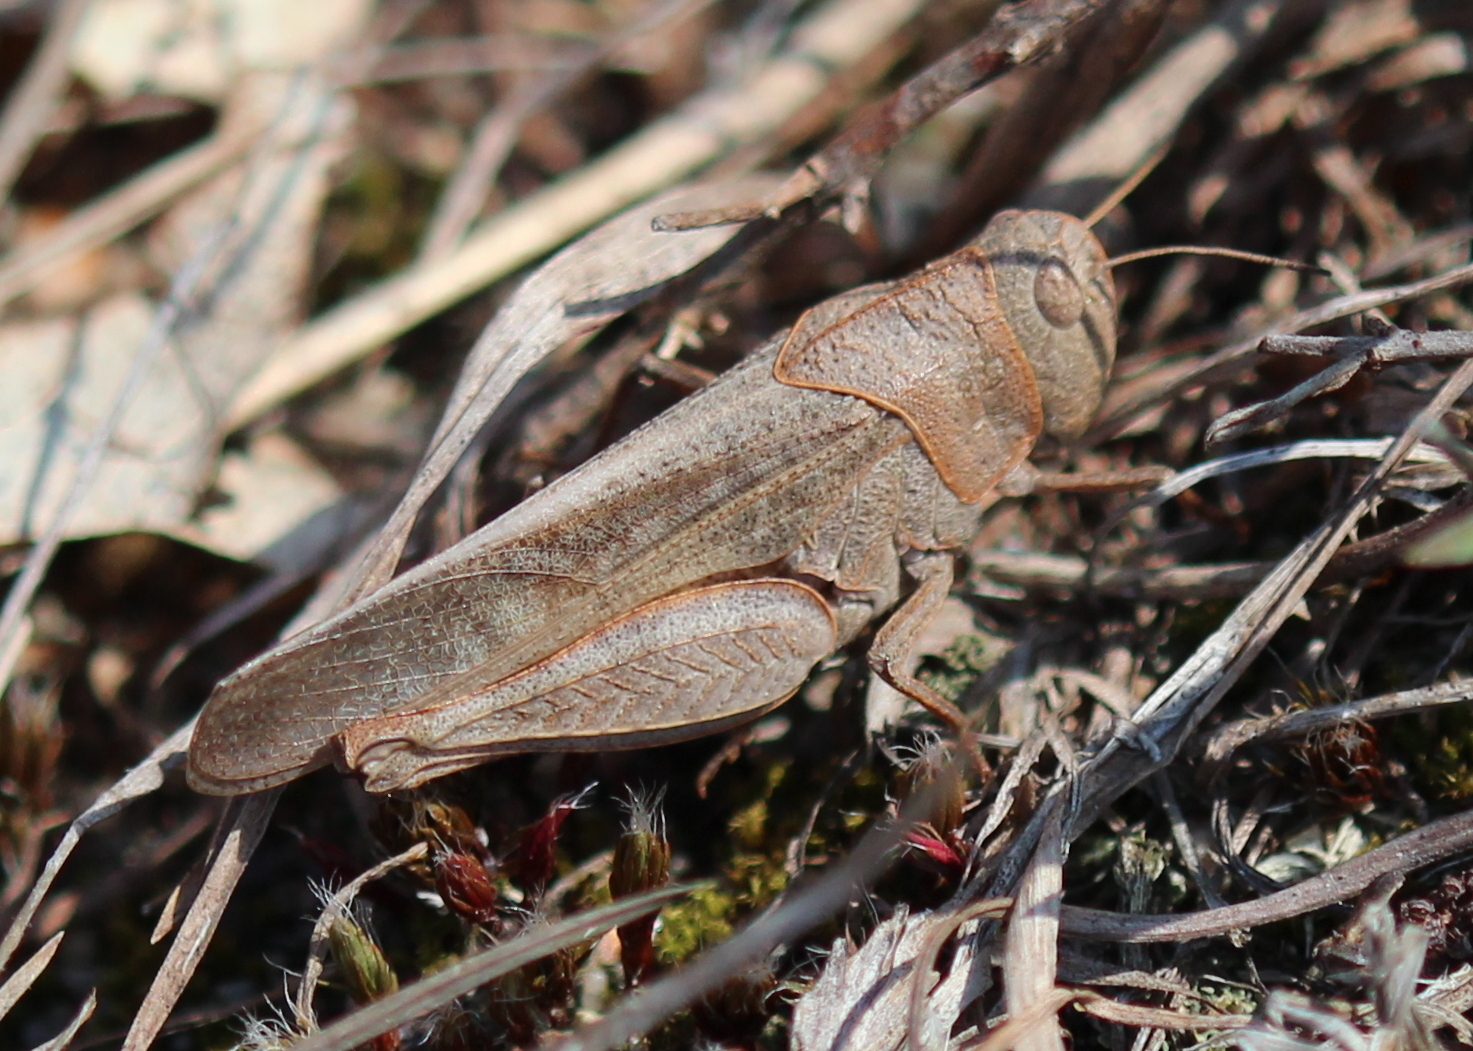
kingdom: Animalia
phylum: Arthropoda
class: Insecta
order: Orthoptera
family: Acrididae
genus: Arphia
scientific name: Arphia sulphurea
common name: Spring yellow-winged locust
